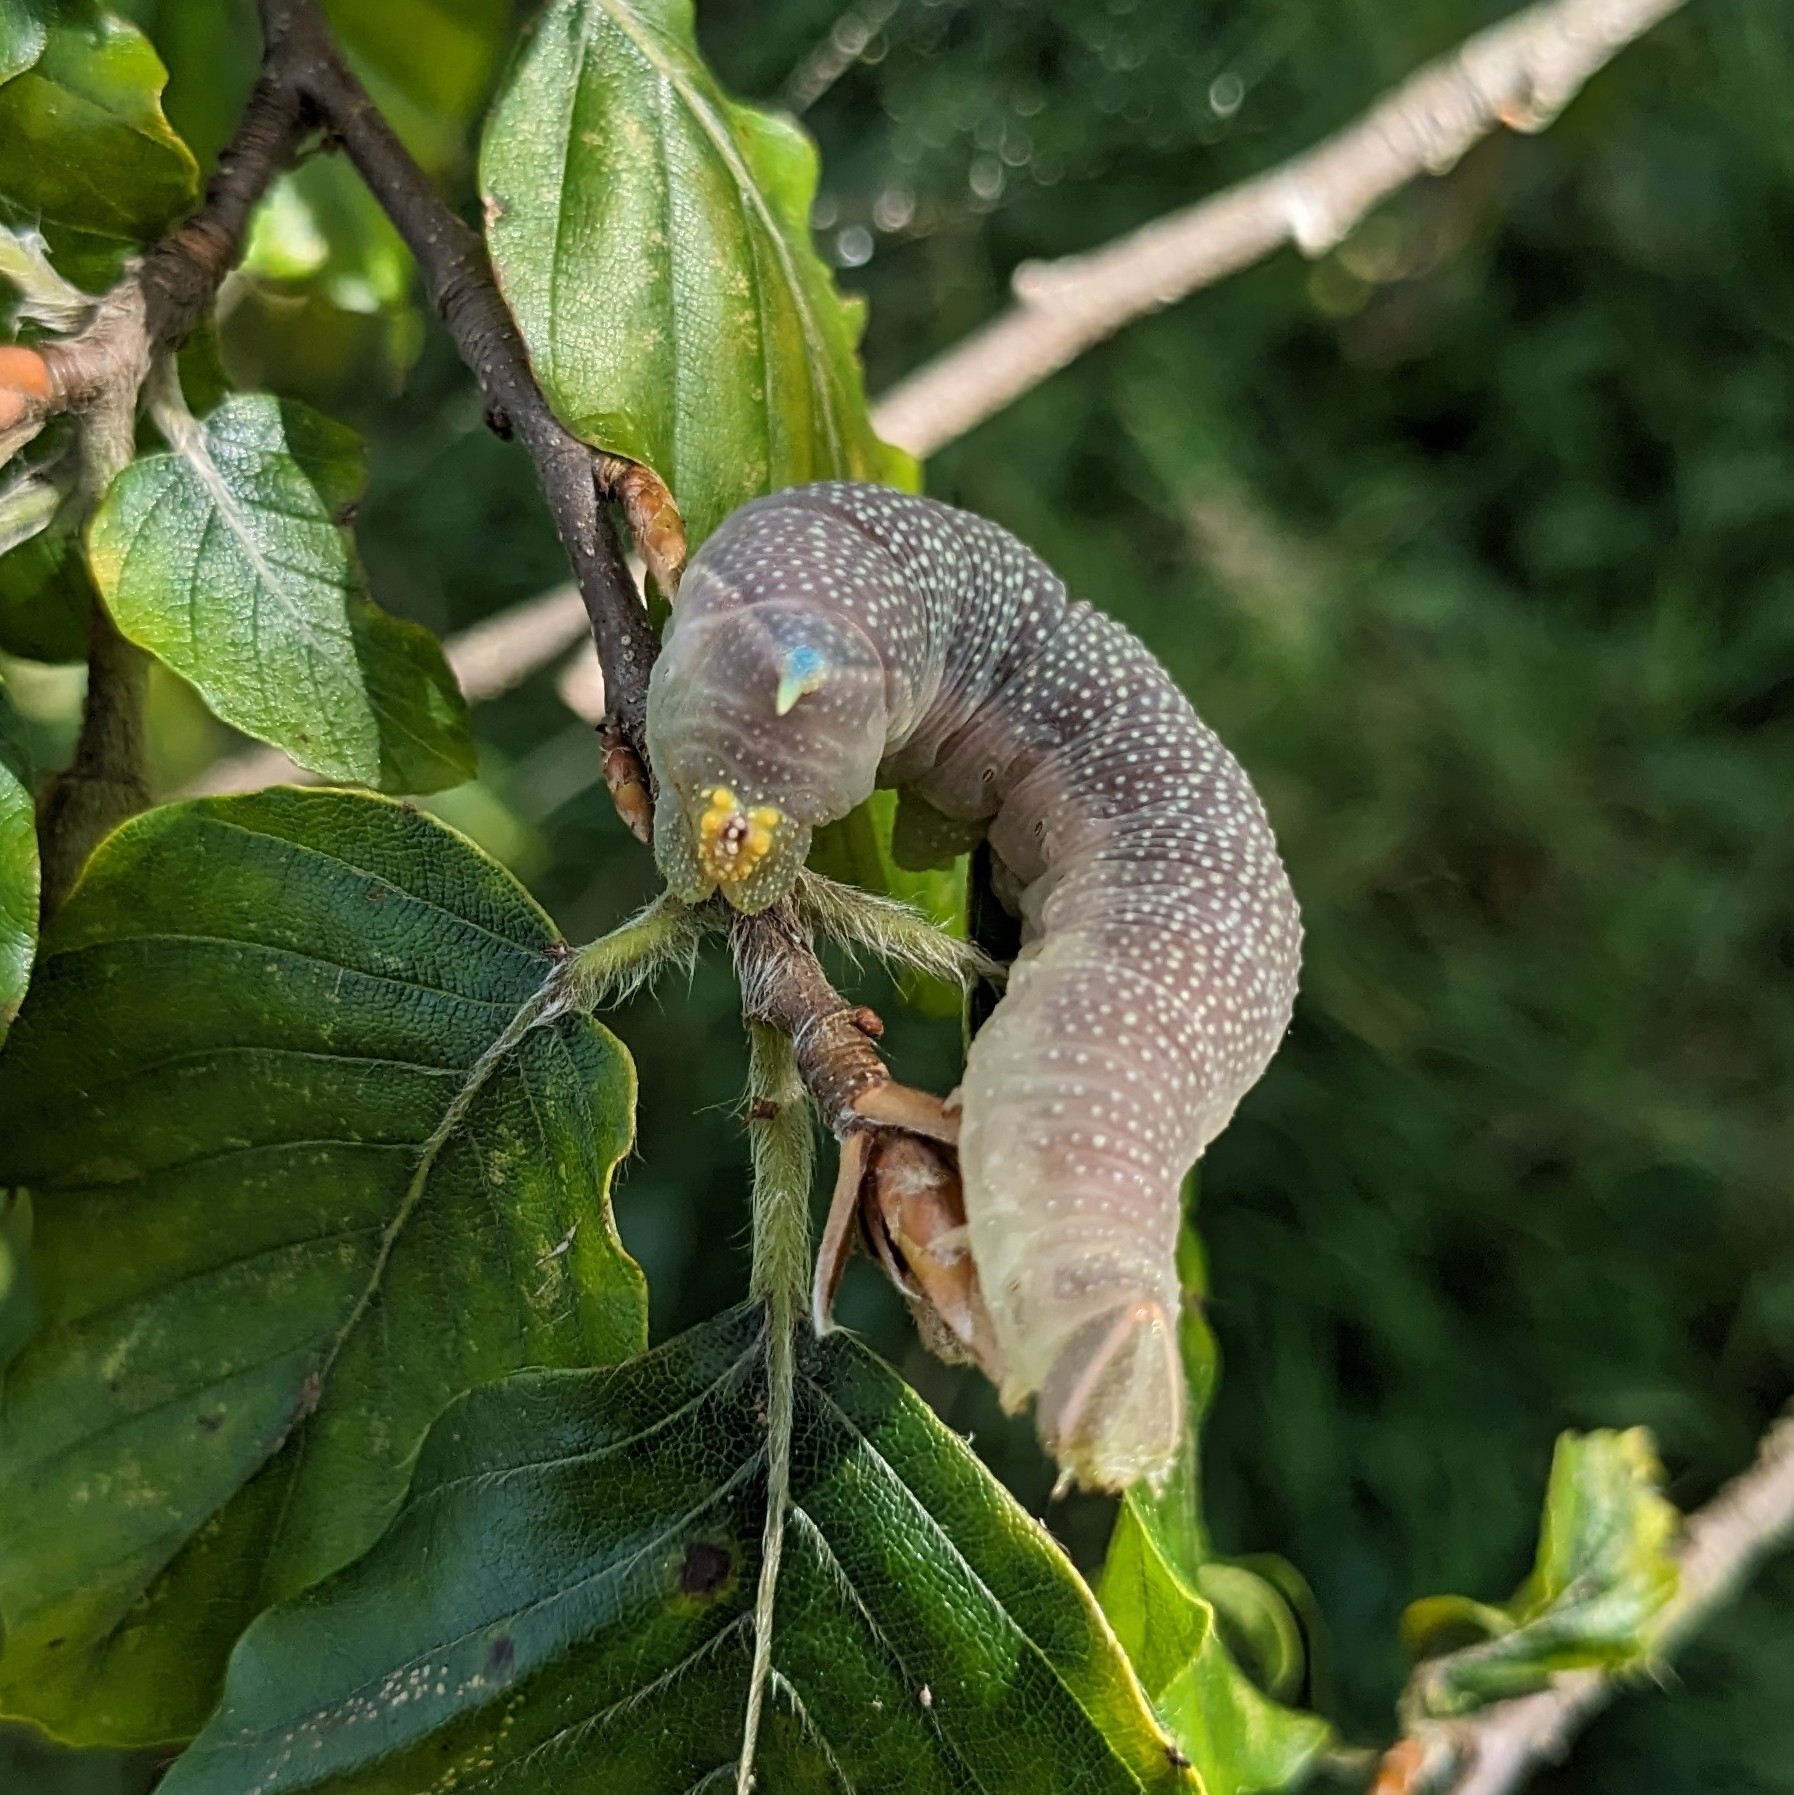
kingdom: Animalia
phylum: Arthropoda
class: Insecta
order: Lepidoptera
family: Sphingidae
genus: Mimas
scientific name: Mimas tiliae
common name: Lime hawk-moth
